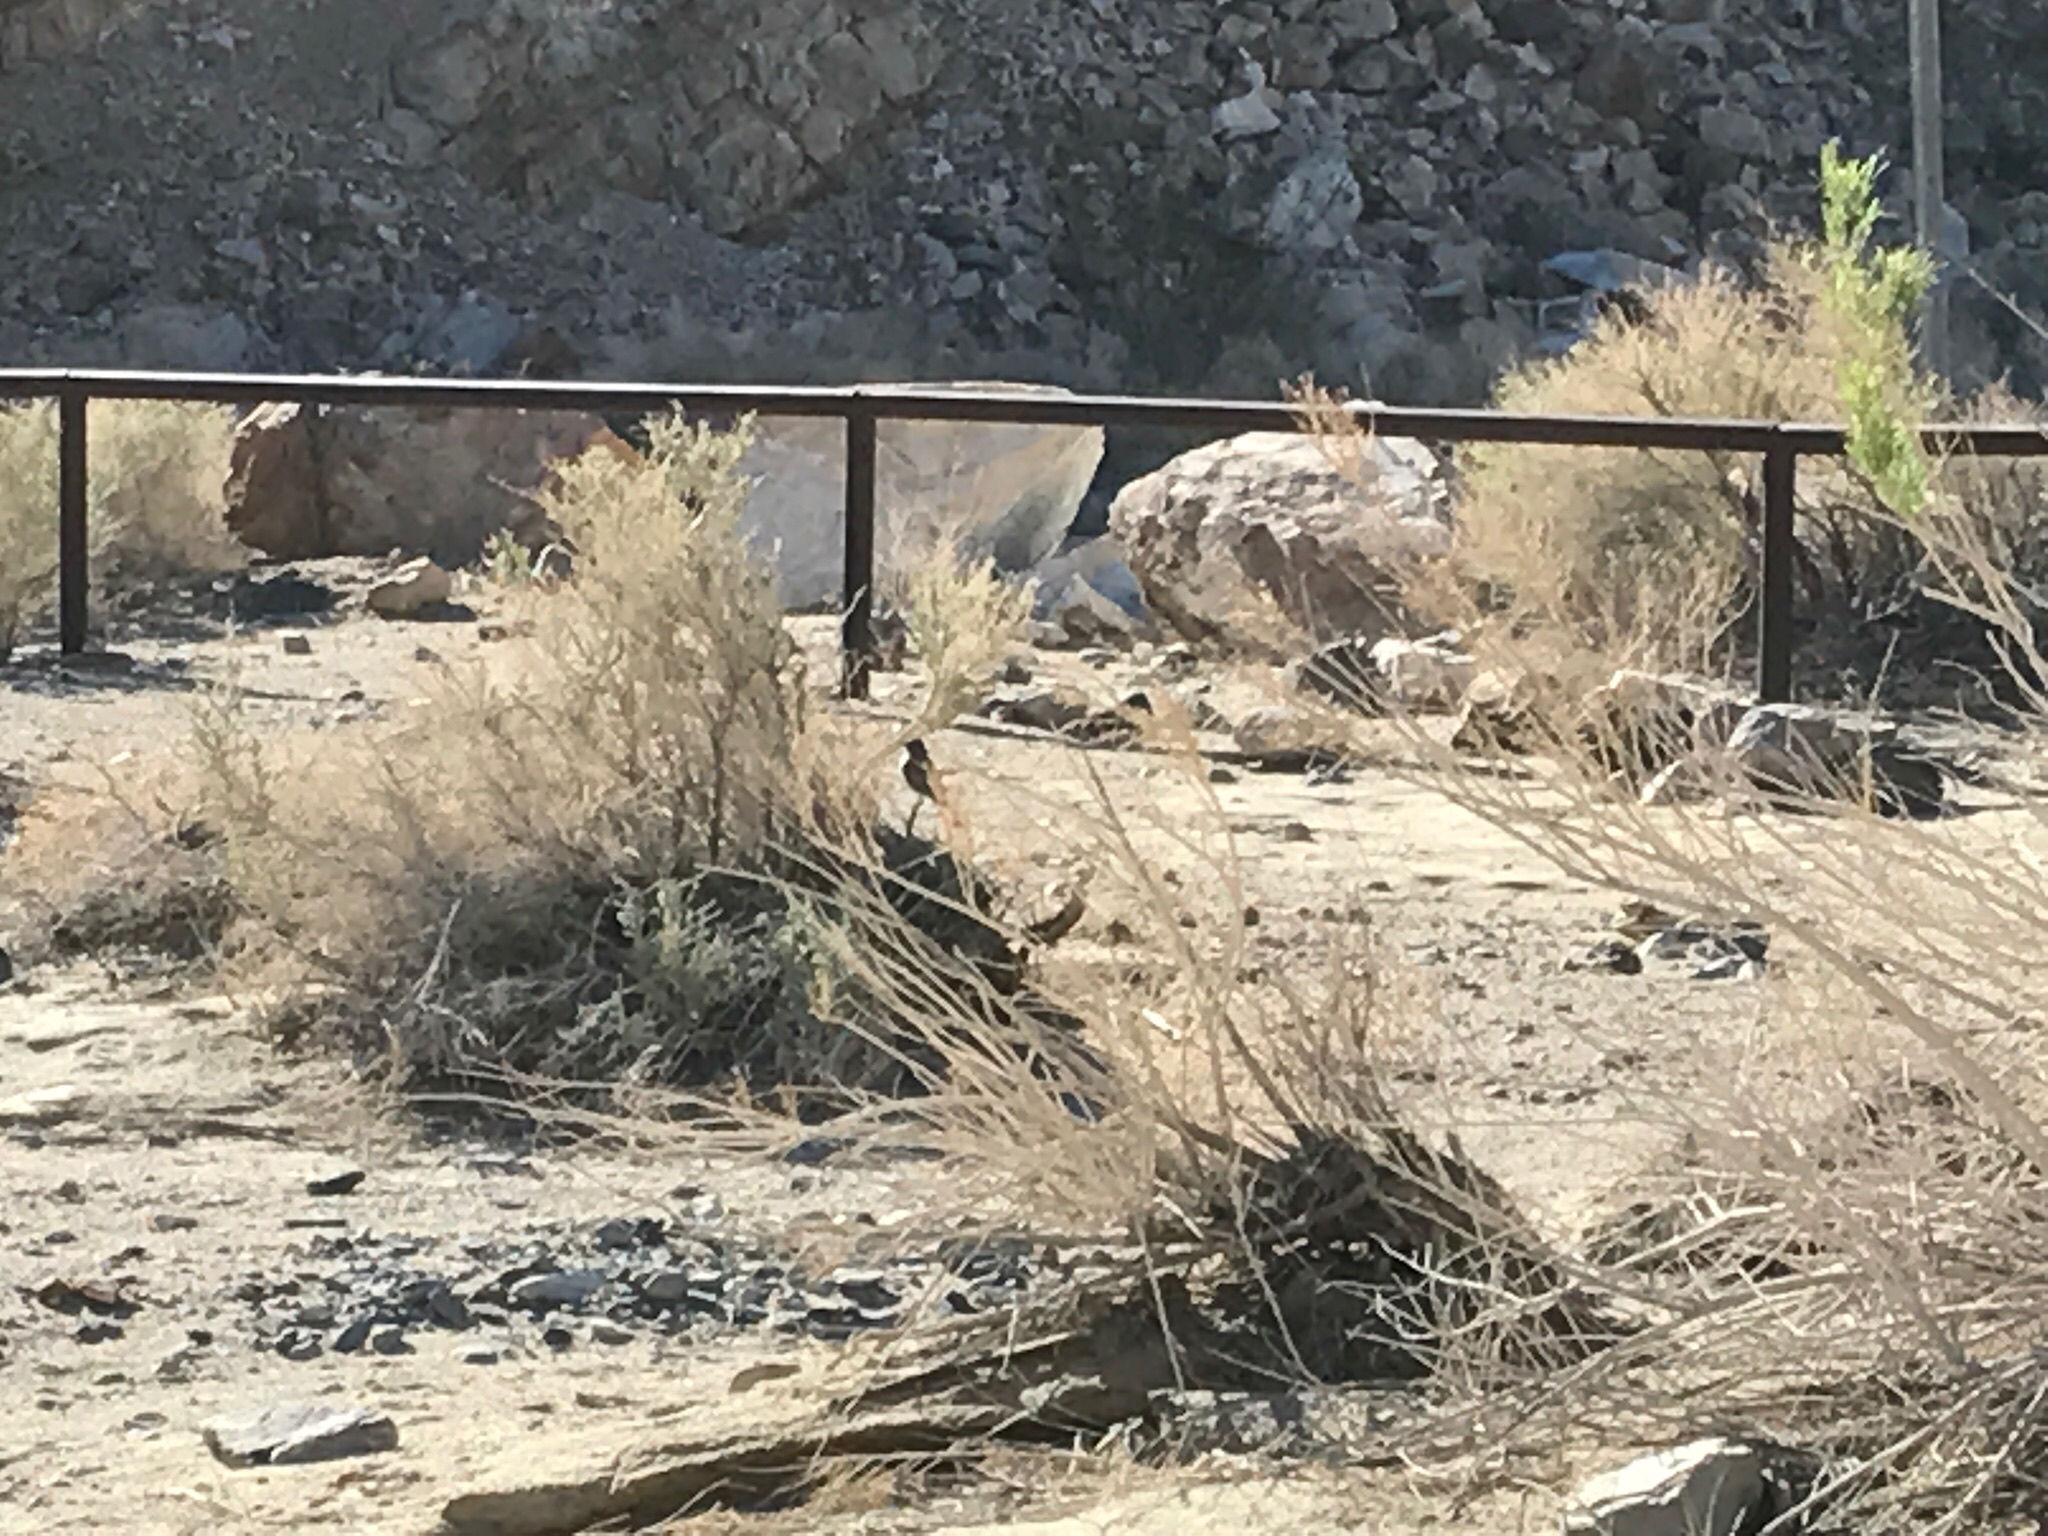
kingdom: Animalia
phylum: Chordata
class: Aves
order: Passeriformes
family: Tyrannidae
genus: Sayornis
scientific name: Sayornis saya
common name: Say's phoebe
